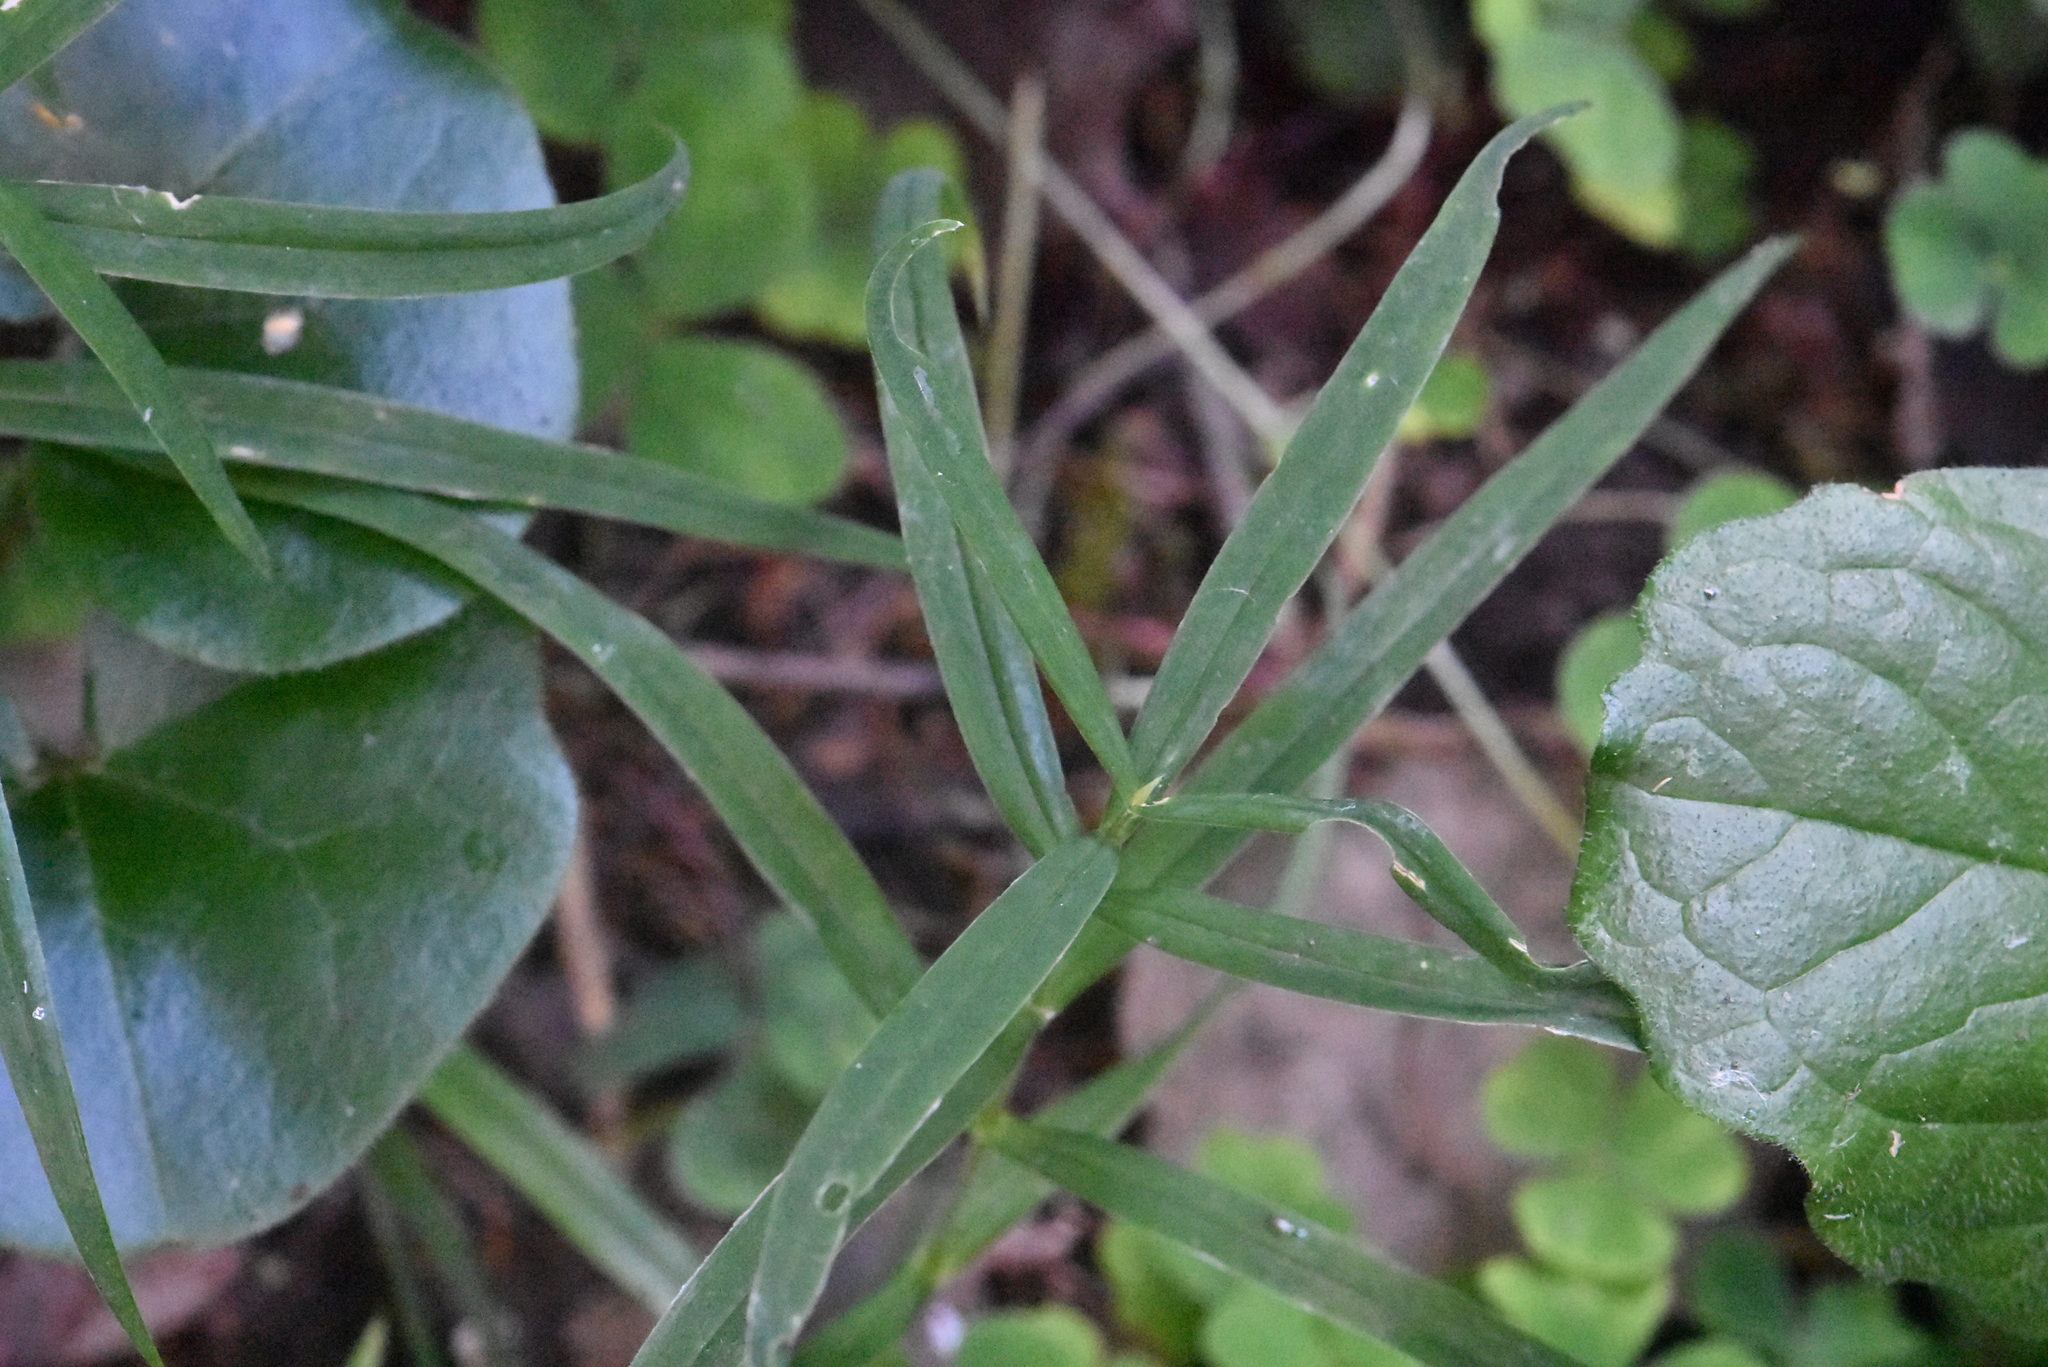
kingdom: Plantae
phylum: Tracheophyta
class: Magnoliopsida
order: Caryophyllales
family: Caryophyllaceae
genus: Rabelera
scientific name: Rabelera holostea
